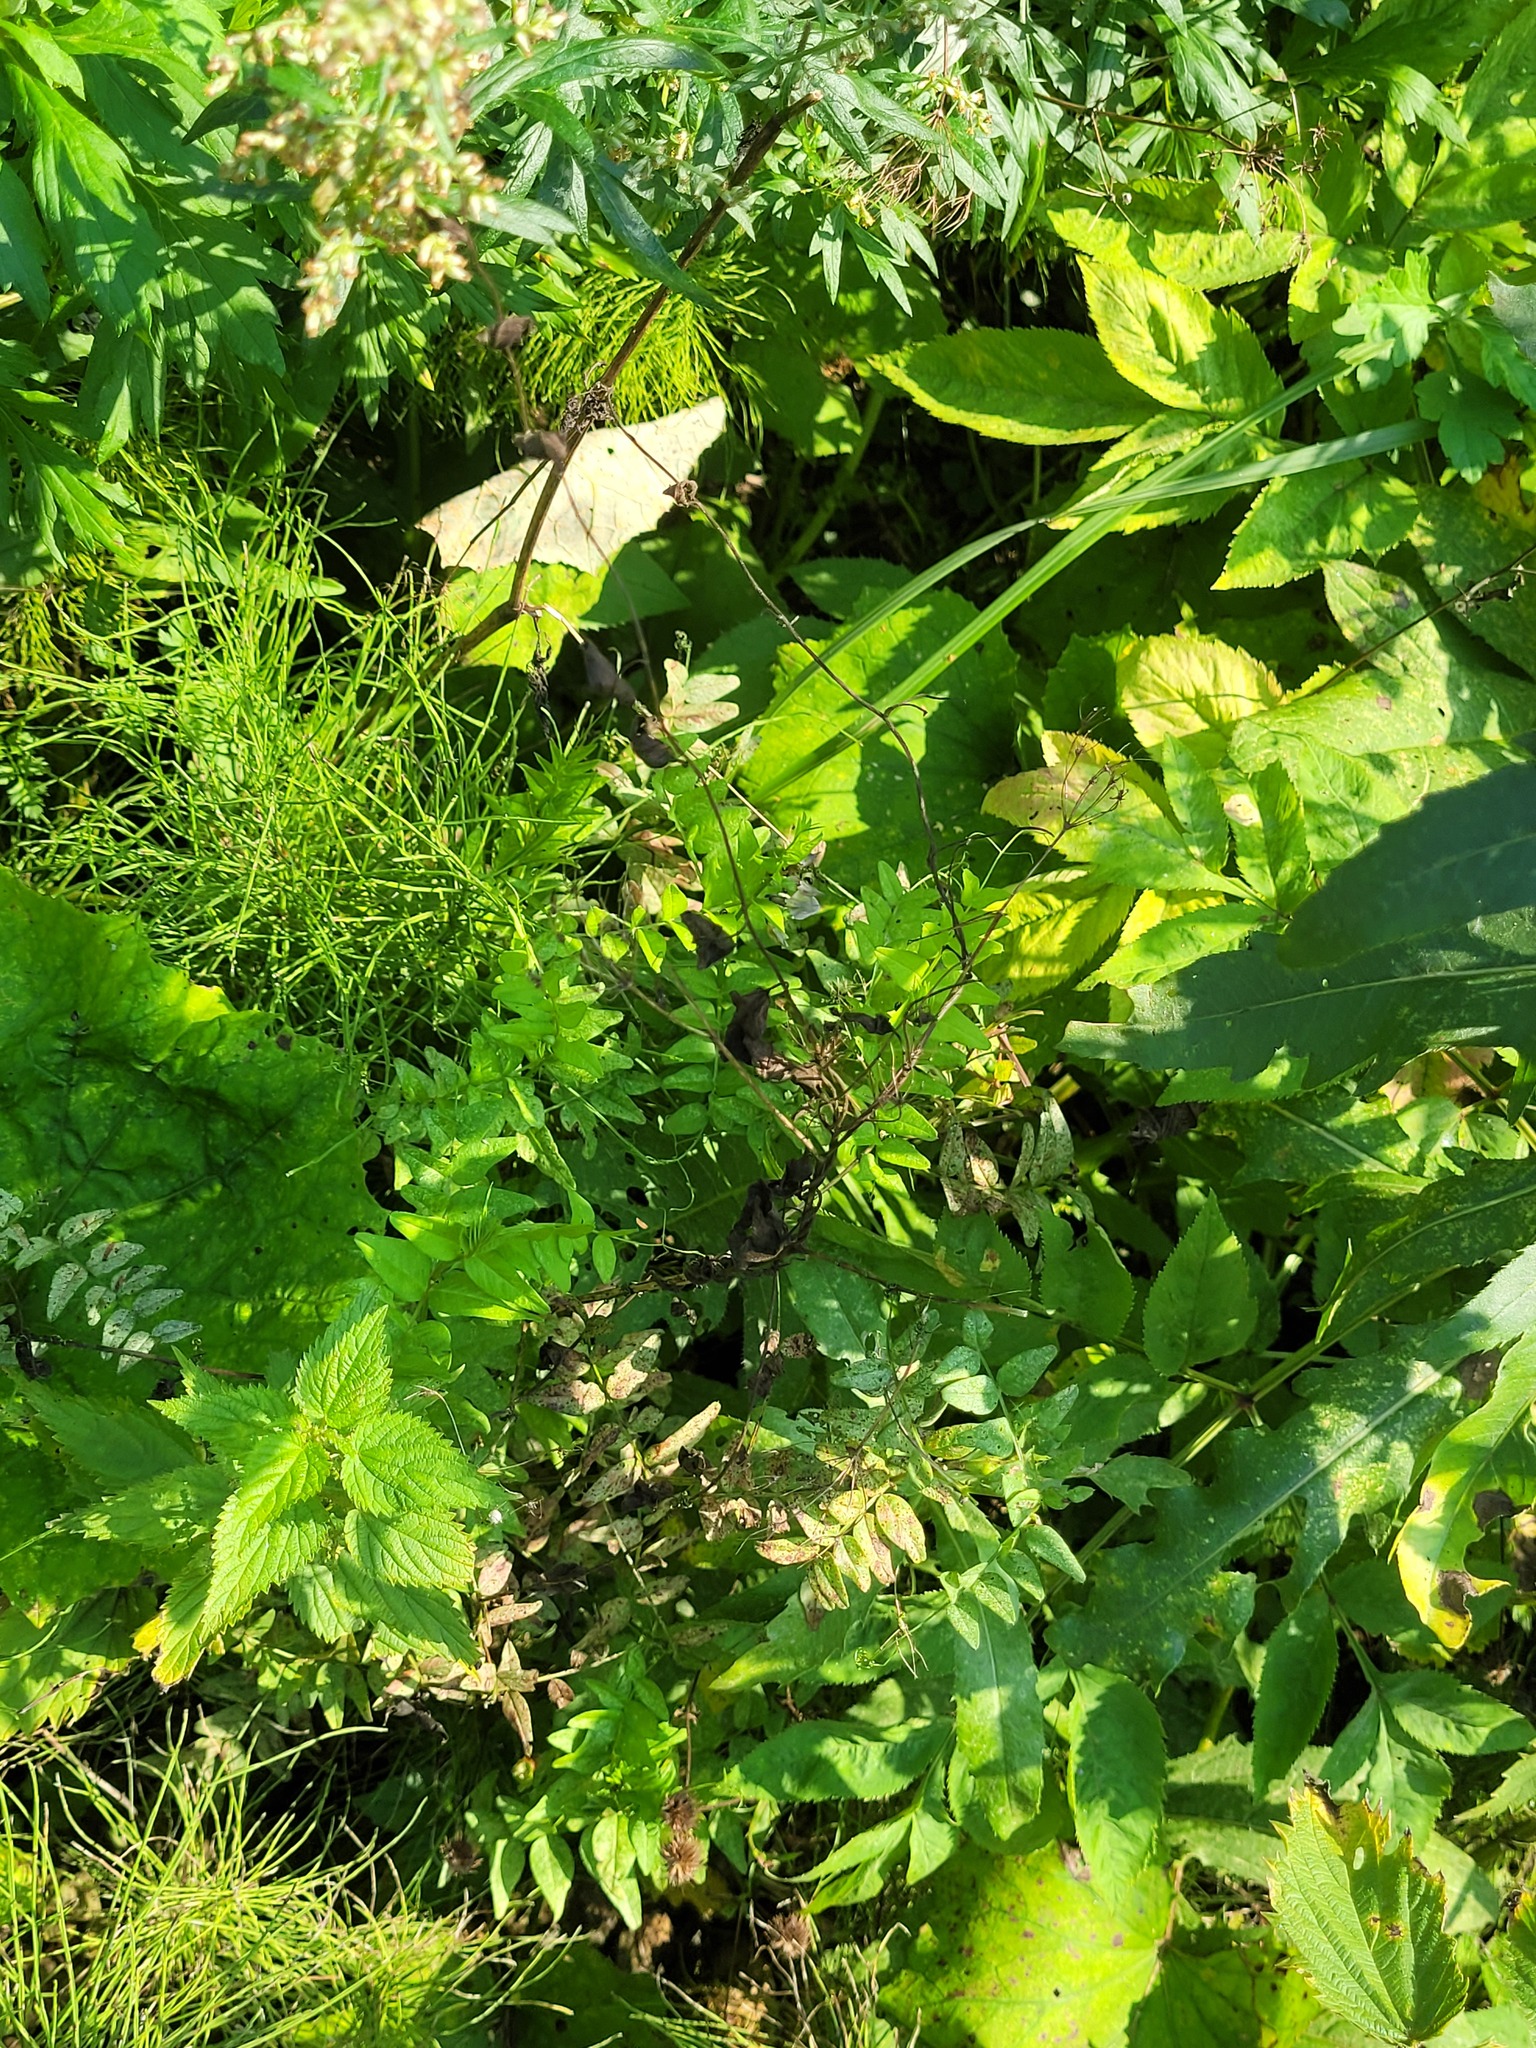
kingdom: Plantae
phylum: Tracheophyta
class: Magnoliopsida
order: Fabales
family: Fabaceae
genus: Vicia
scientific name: Vicia sepium
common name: Bush vetch
